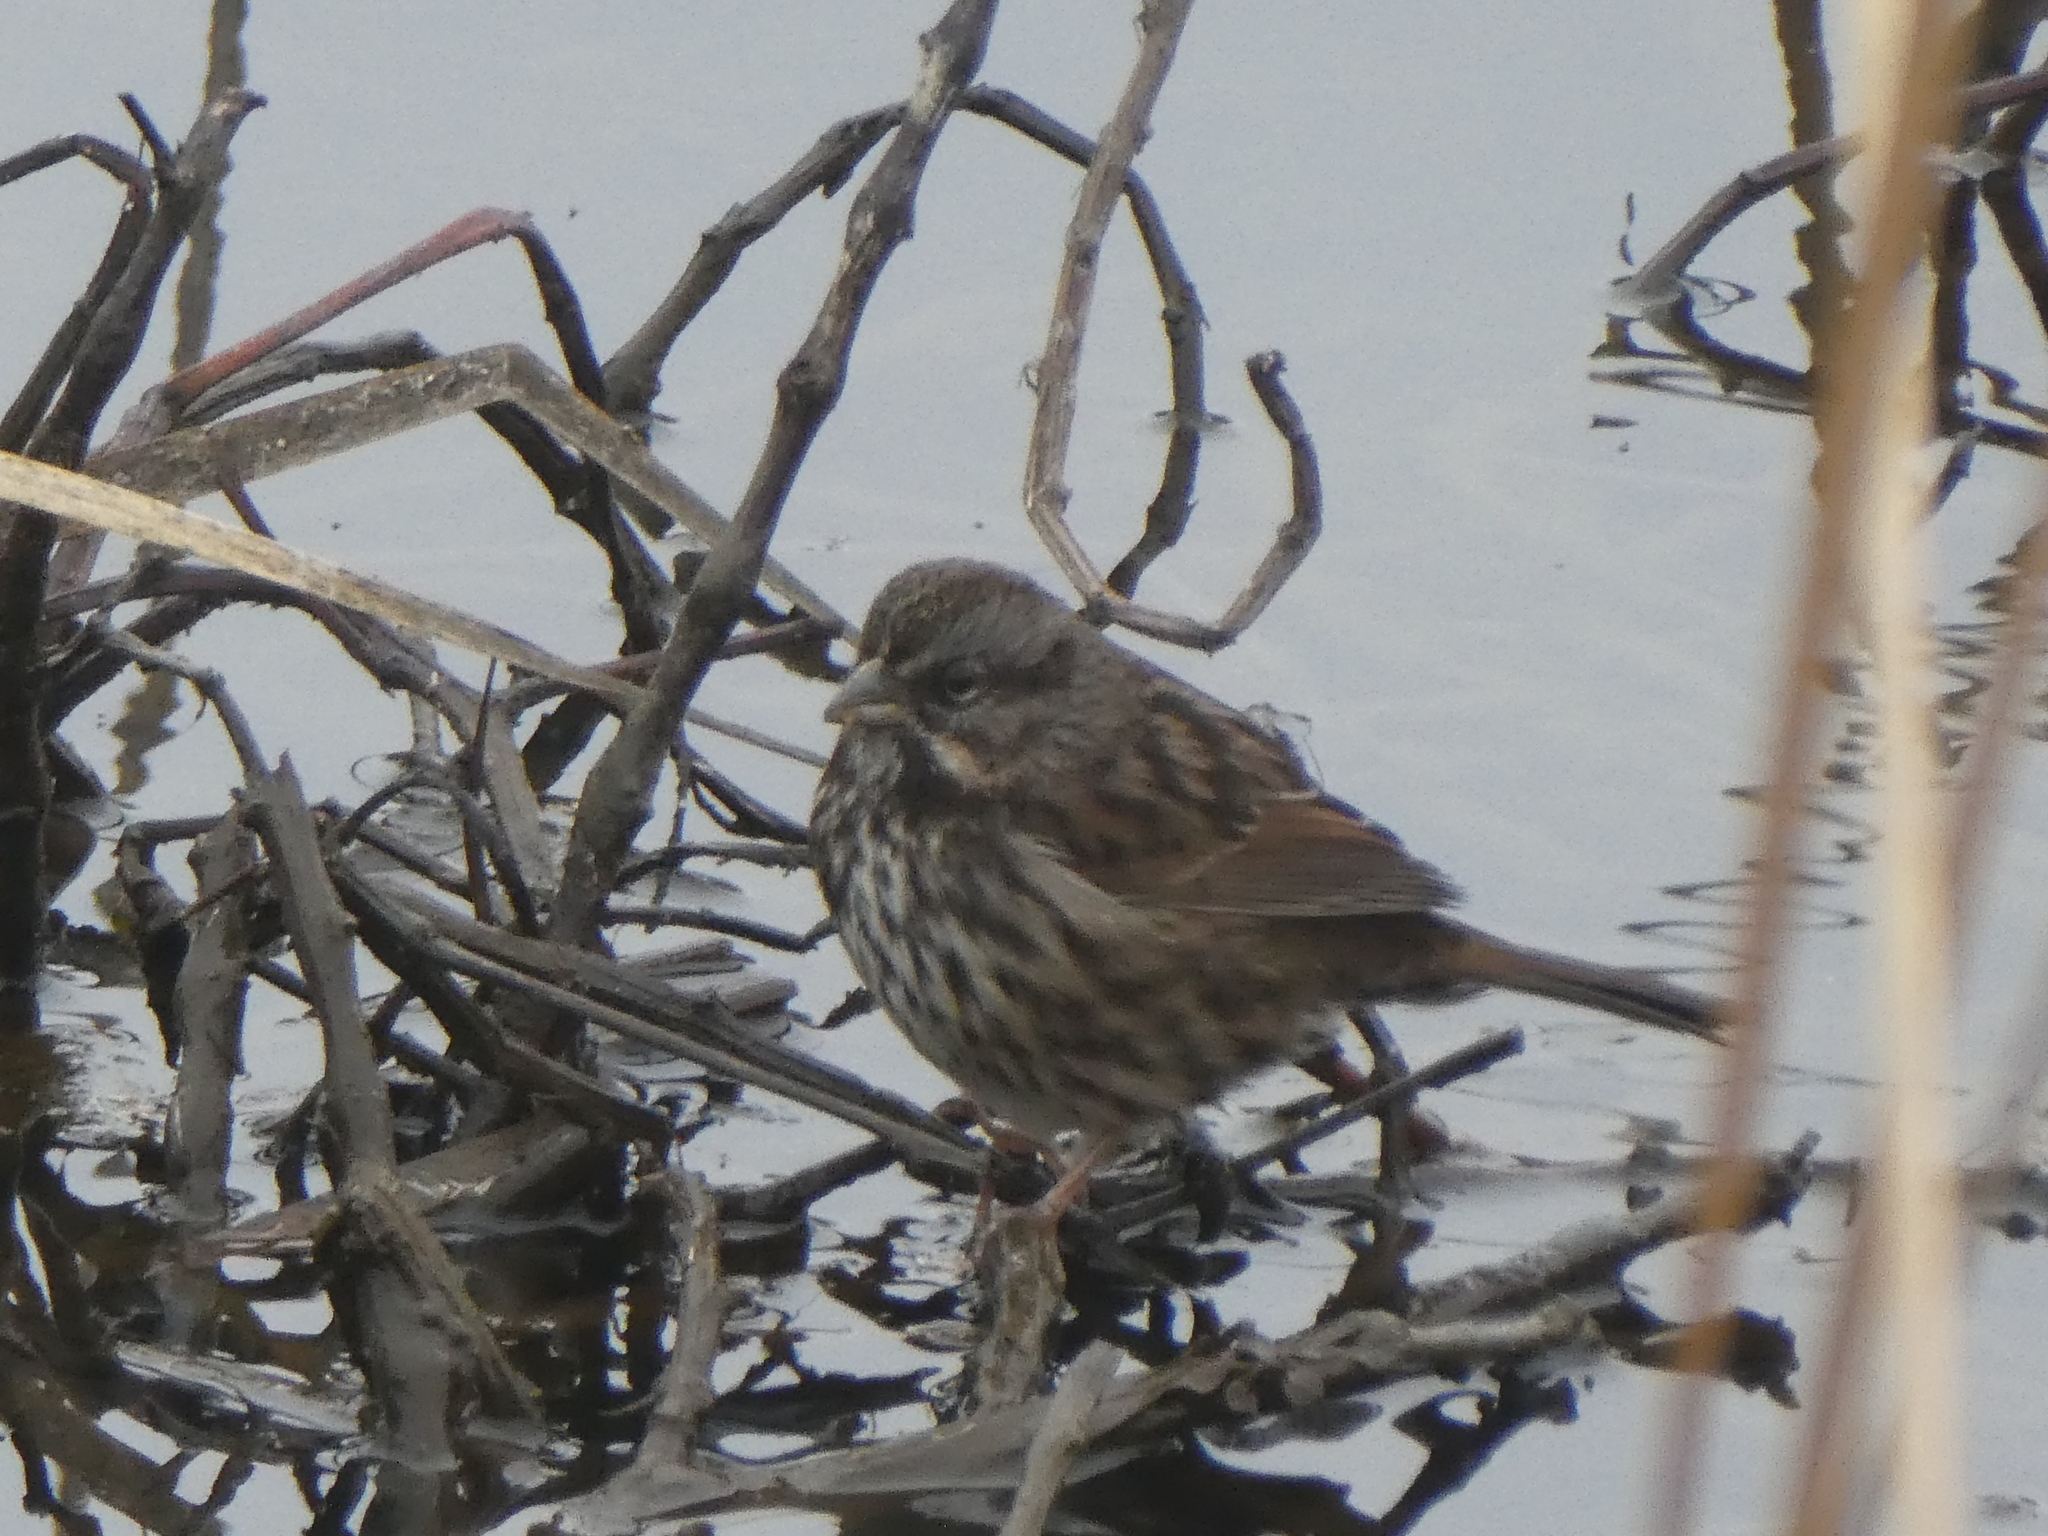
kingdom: Animalia
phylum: Chordata
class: Aves
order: Passeriformes
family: Passerellidae
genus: Melospiza
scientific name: Melospiza melodia
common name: Song sparrow
